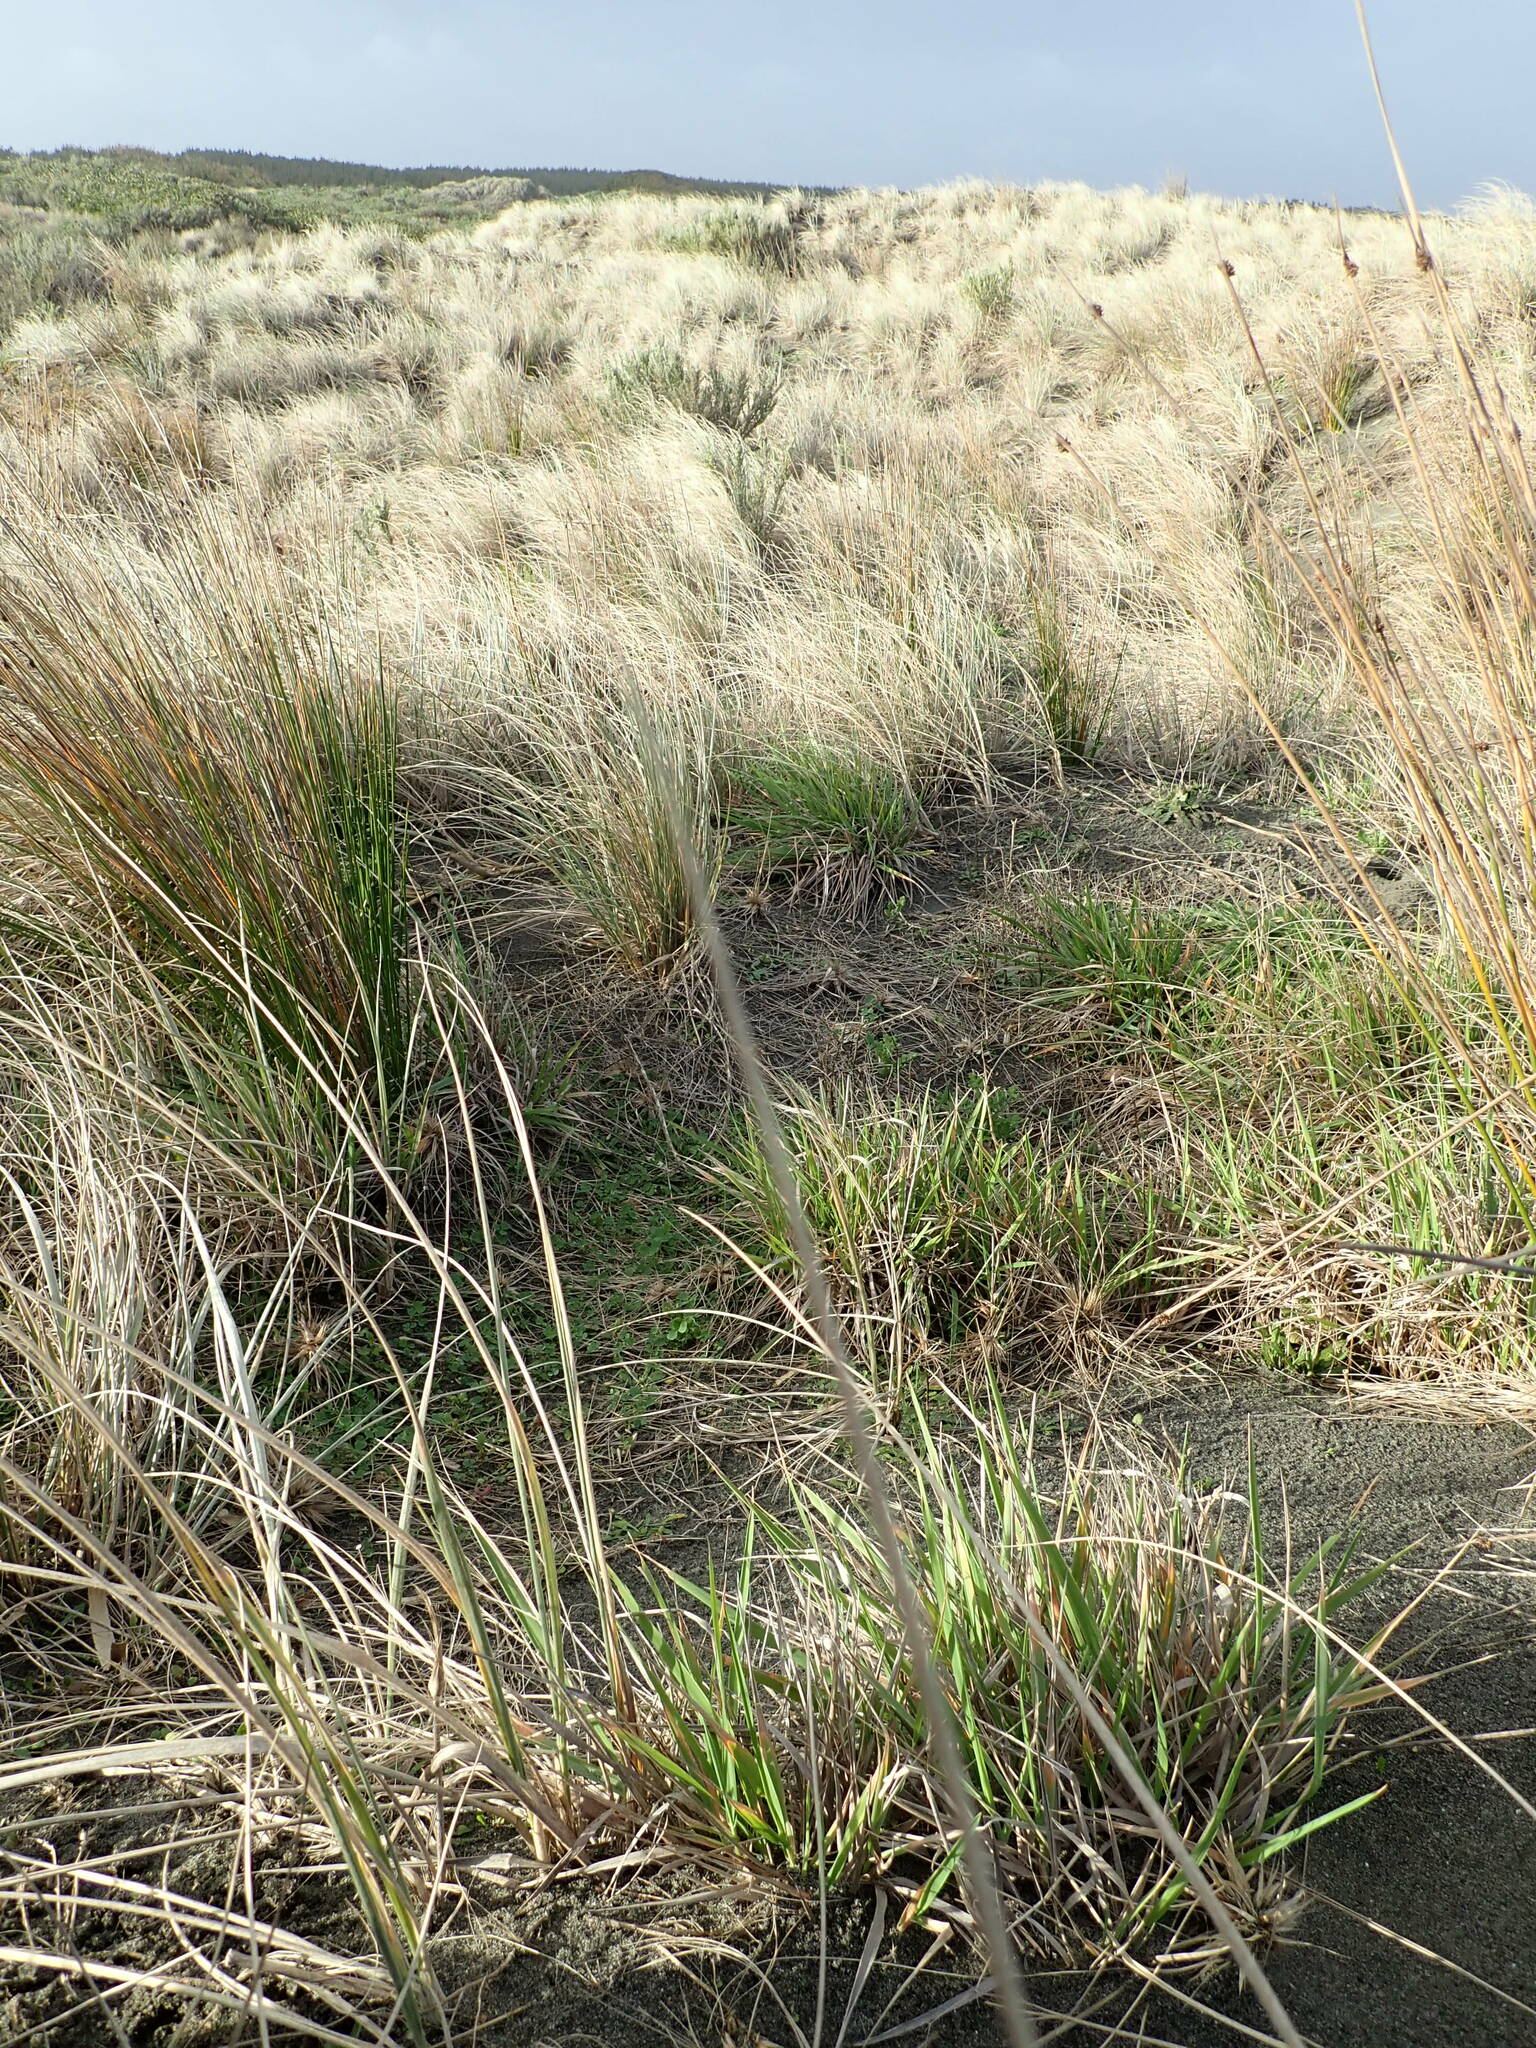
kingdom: Plantae
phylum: Tracheophyta
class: Liliopsida
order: Poales
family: Poaceae
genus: Lachnagrostis
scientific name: Lachnagrostis billardierei
